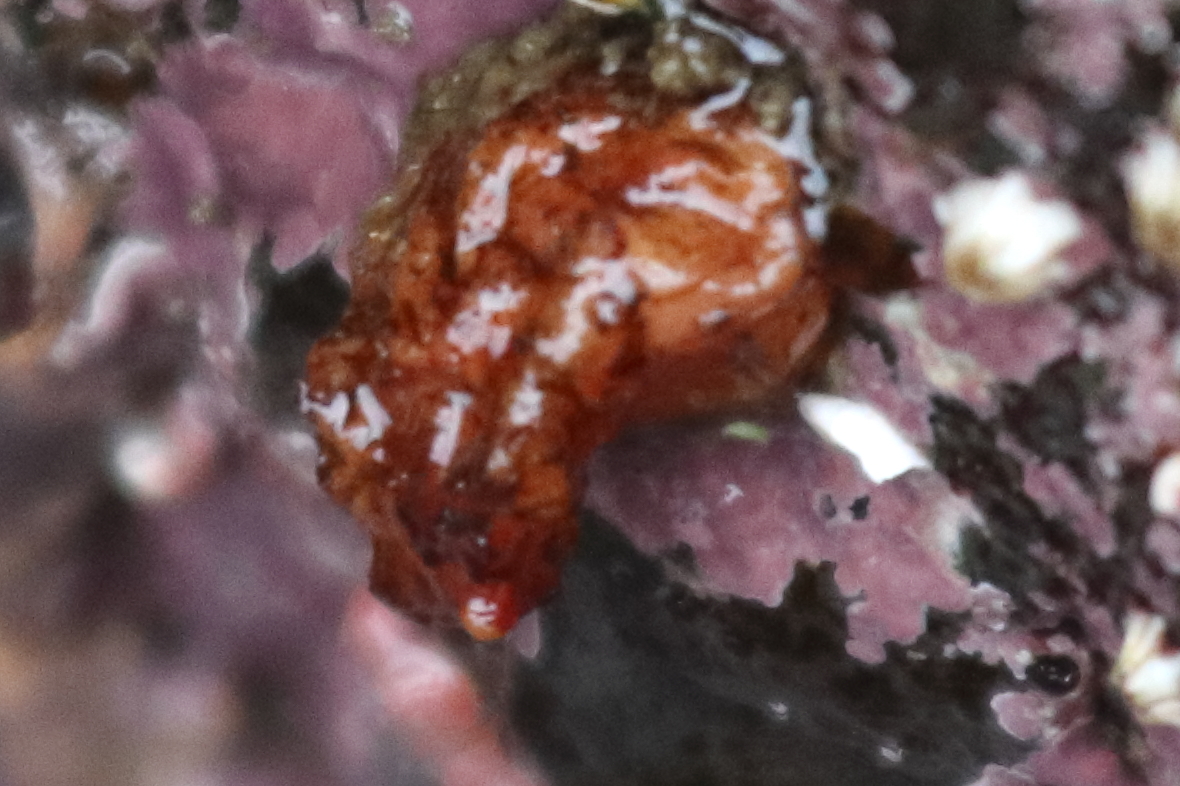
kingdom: Animalia
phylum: Chordata
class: Ascidiacea
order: Stolidobranchia
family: Styelidae
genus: Styela
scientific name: Styela truncata
